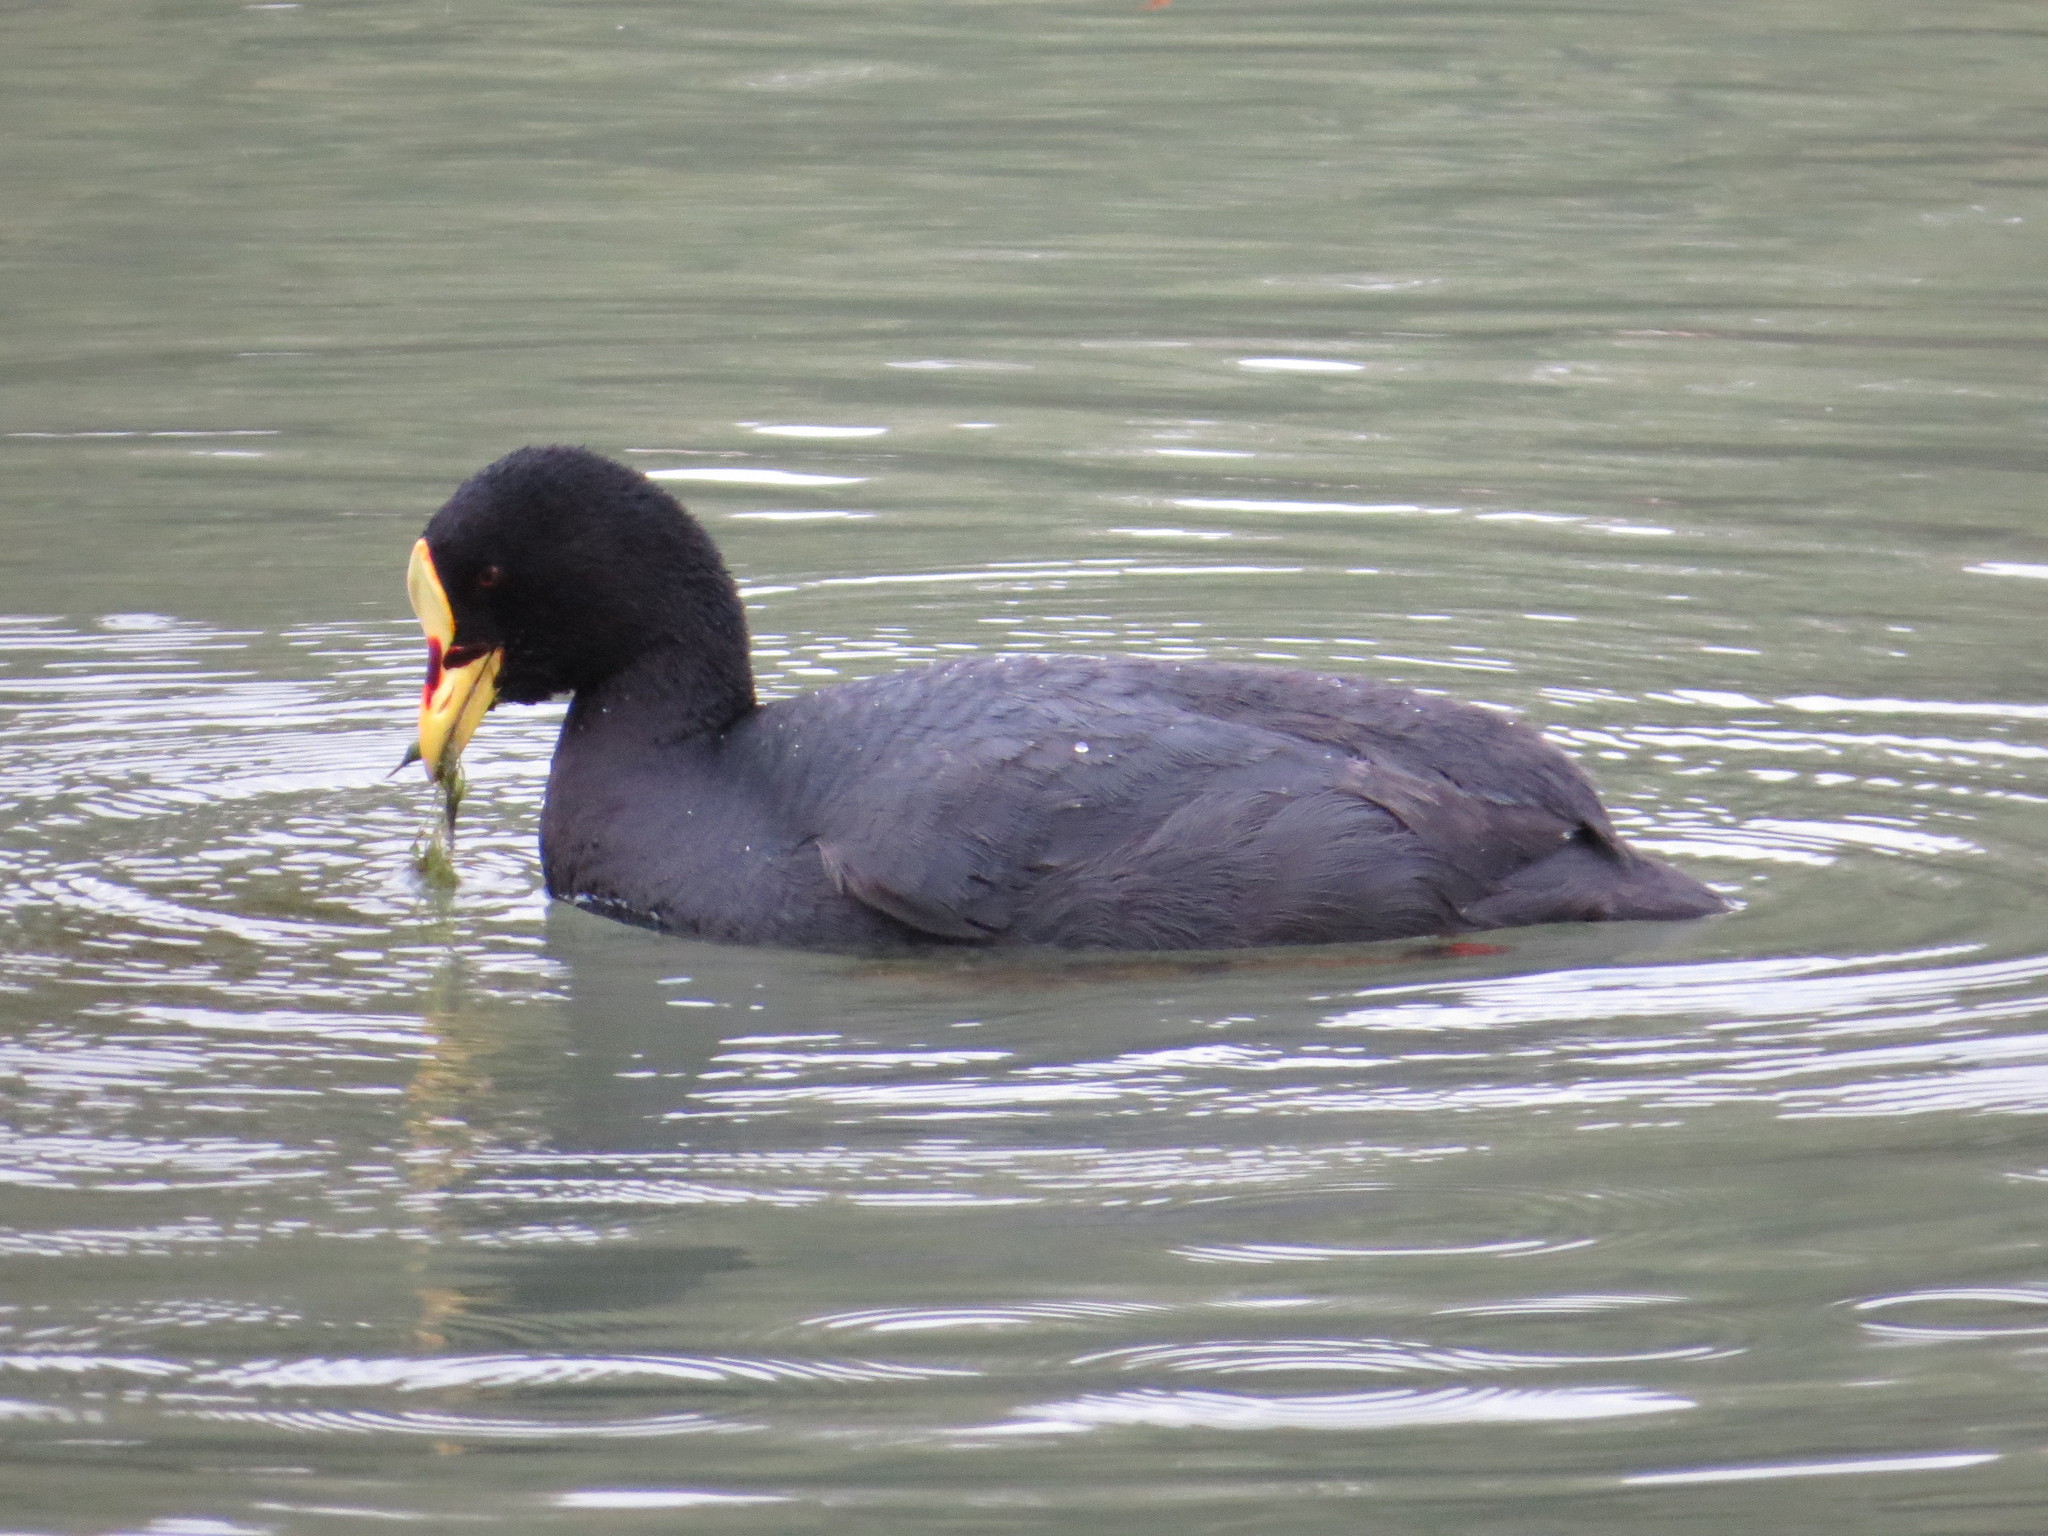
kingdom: Animalia
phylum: Chordata
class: Aves
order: Gruiformes
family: Rallidae
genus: Fulica
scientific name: Fulica armillata
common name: Red-gartered coot
